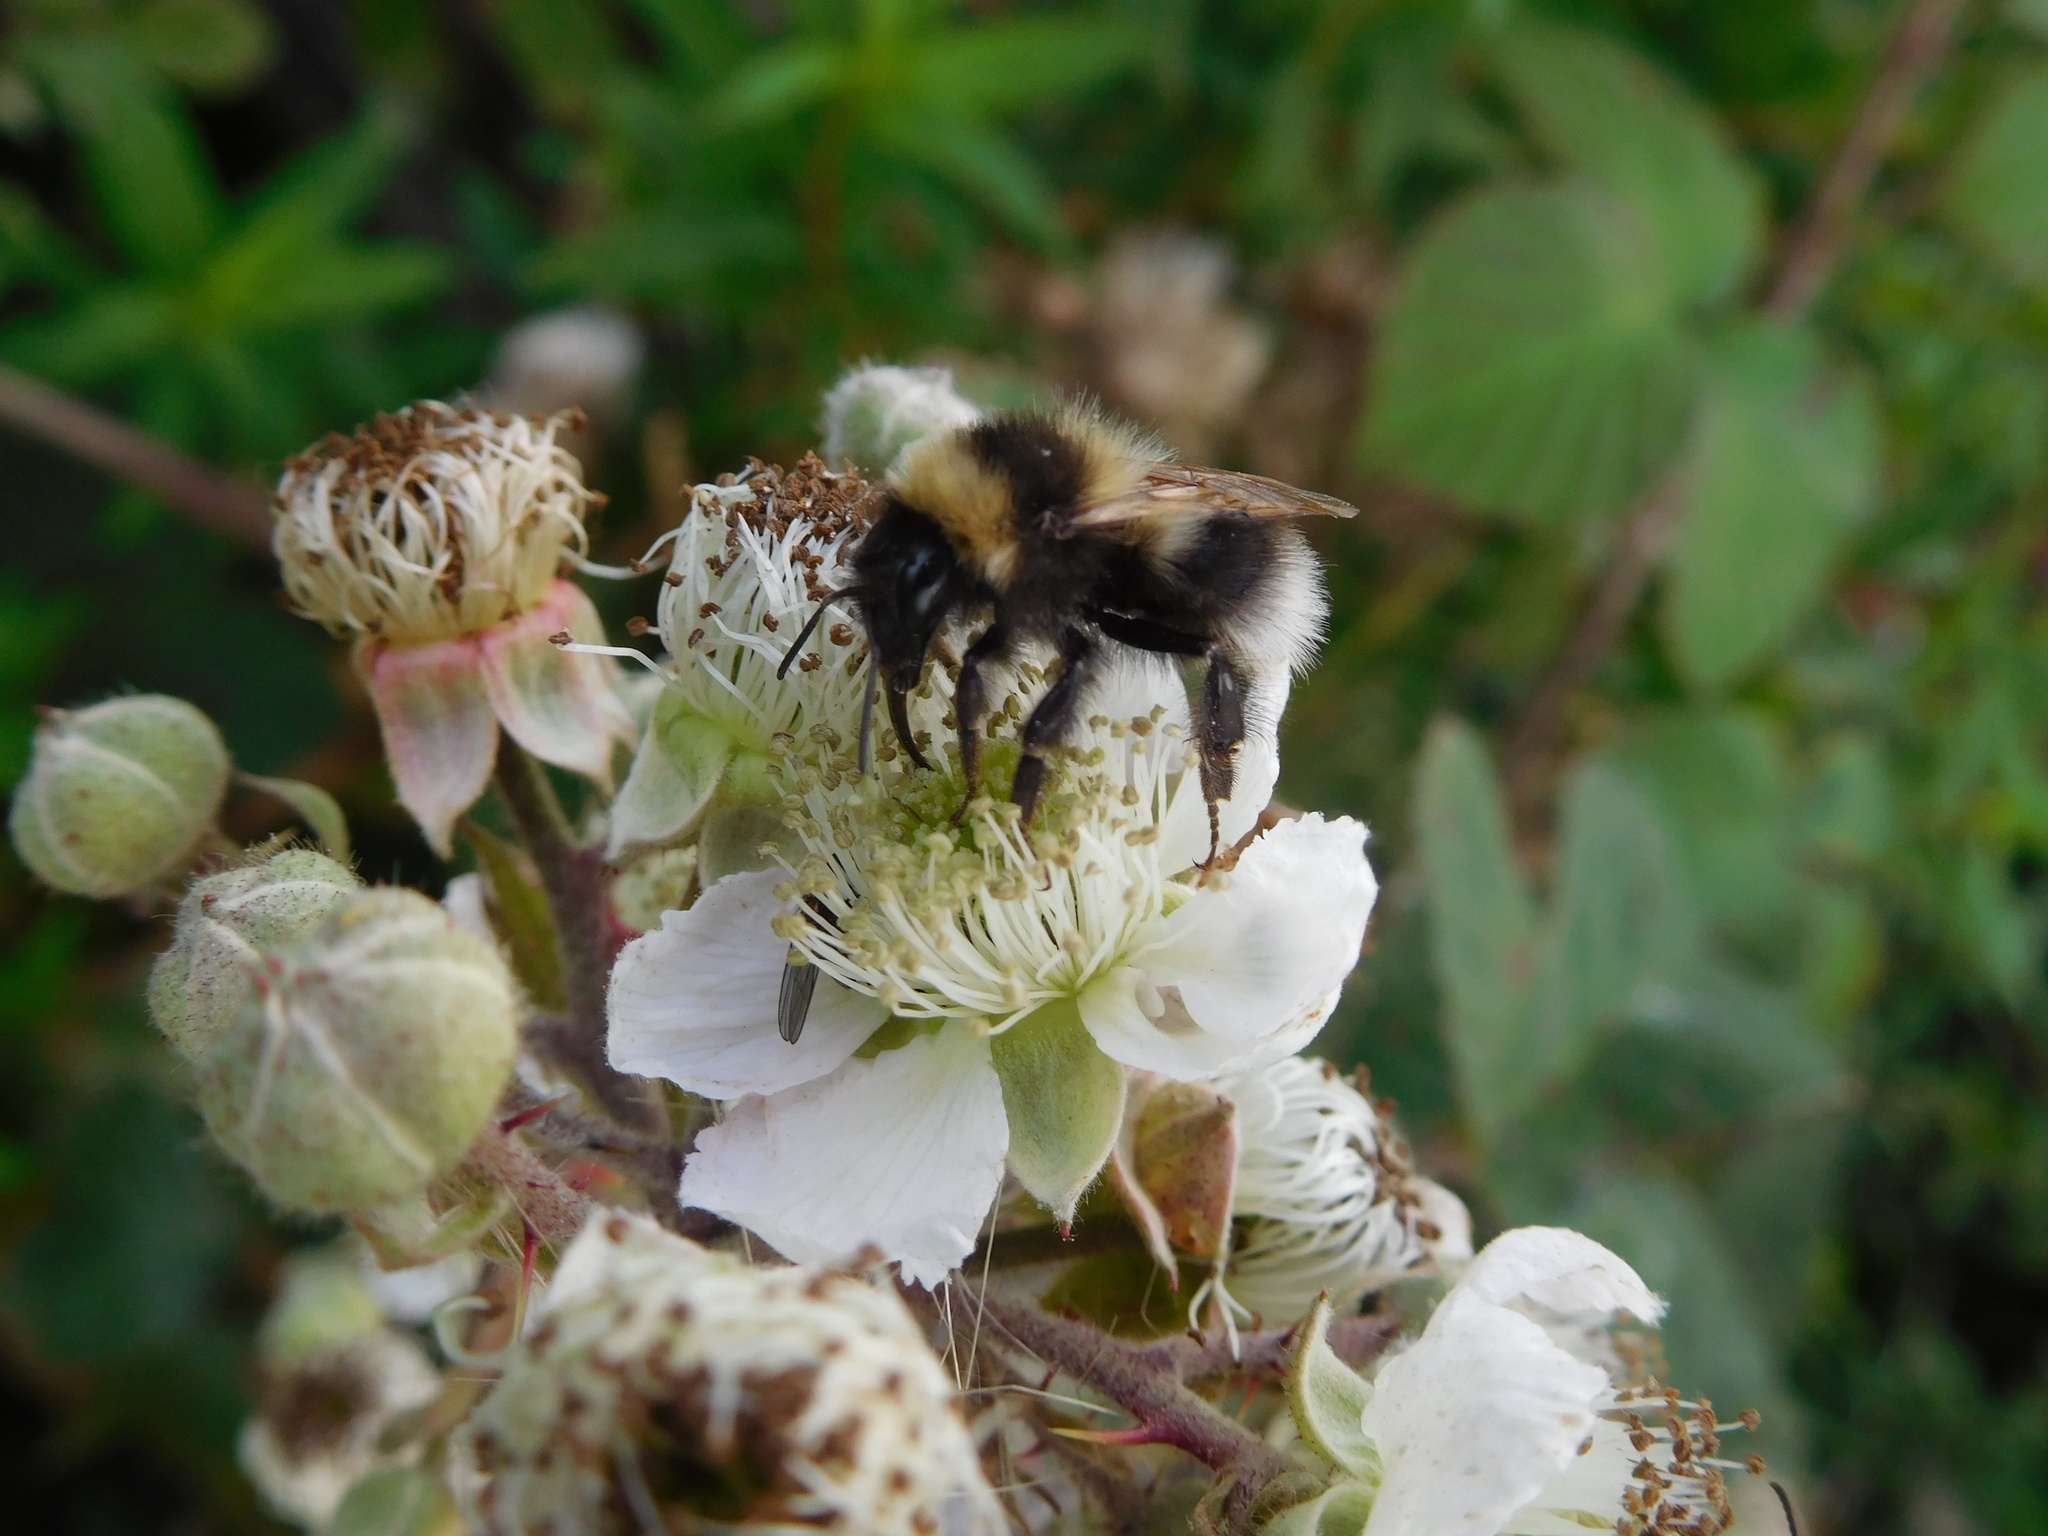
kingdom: Animalia
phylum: Arthropoda
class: Insecta
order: Hymenoptera
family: Apidae
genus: Bombus
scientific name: Bombus hortorum
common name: Garden bumblebee
